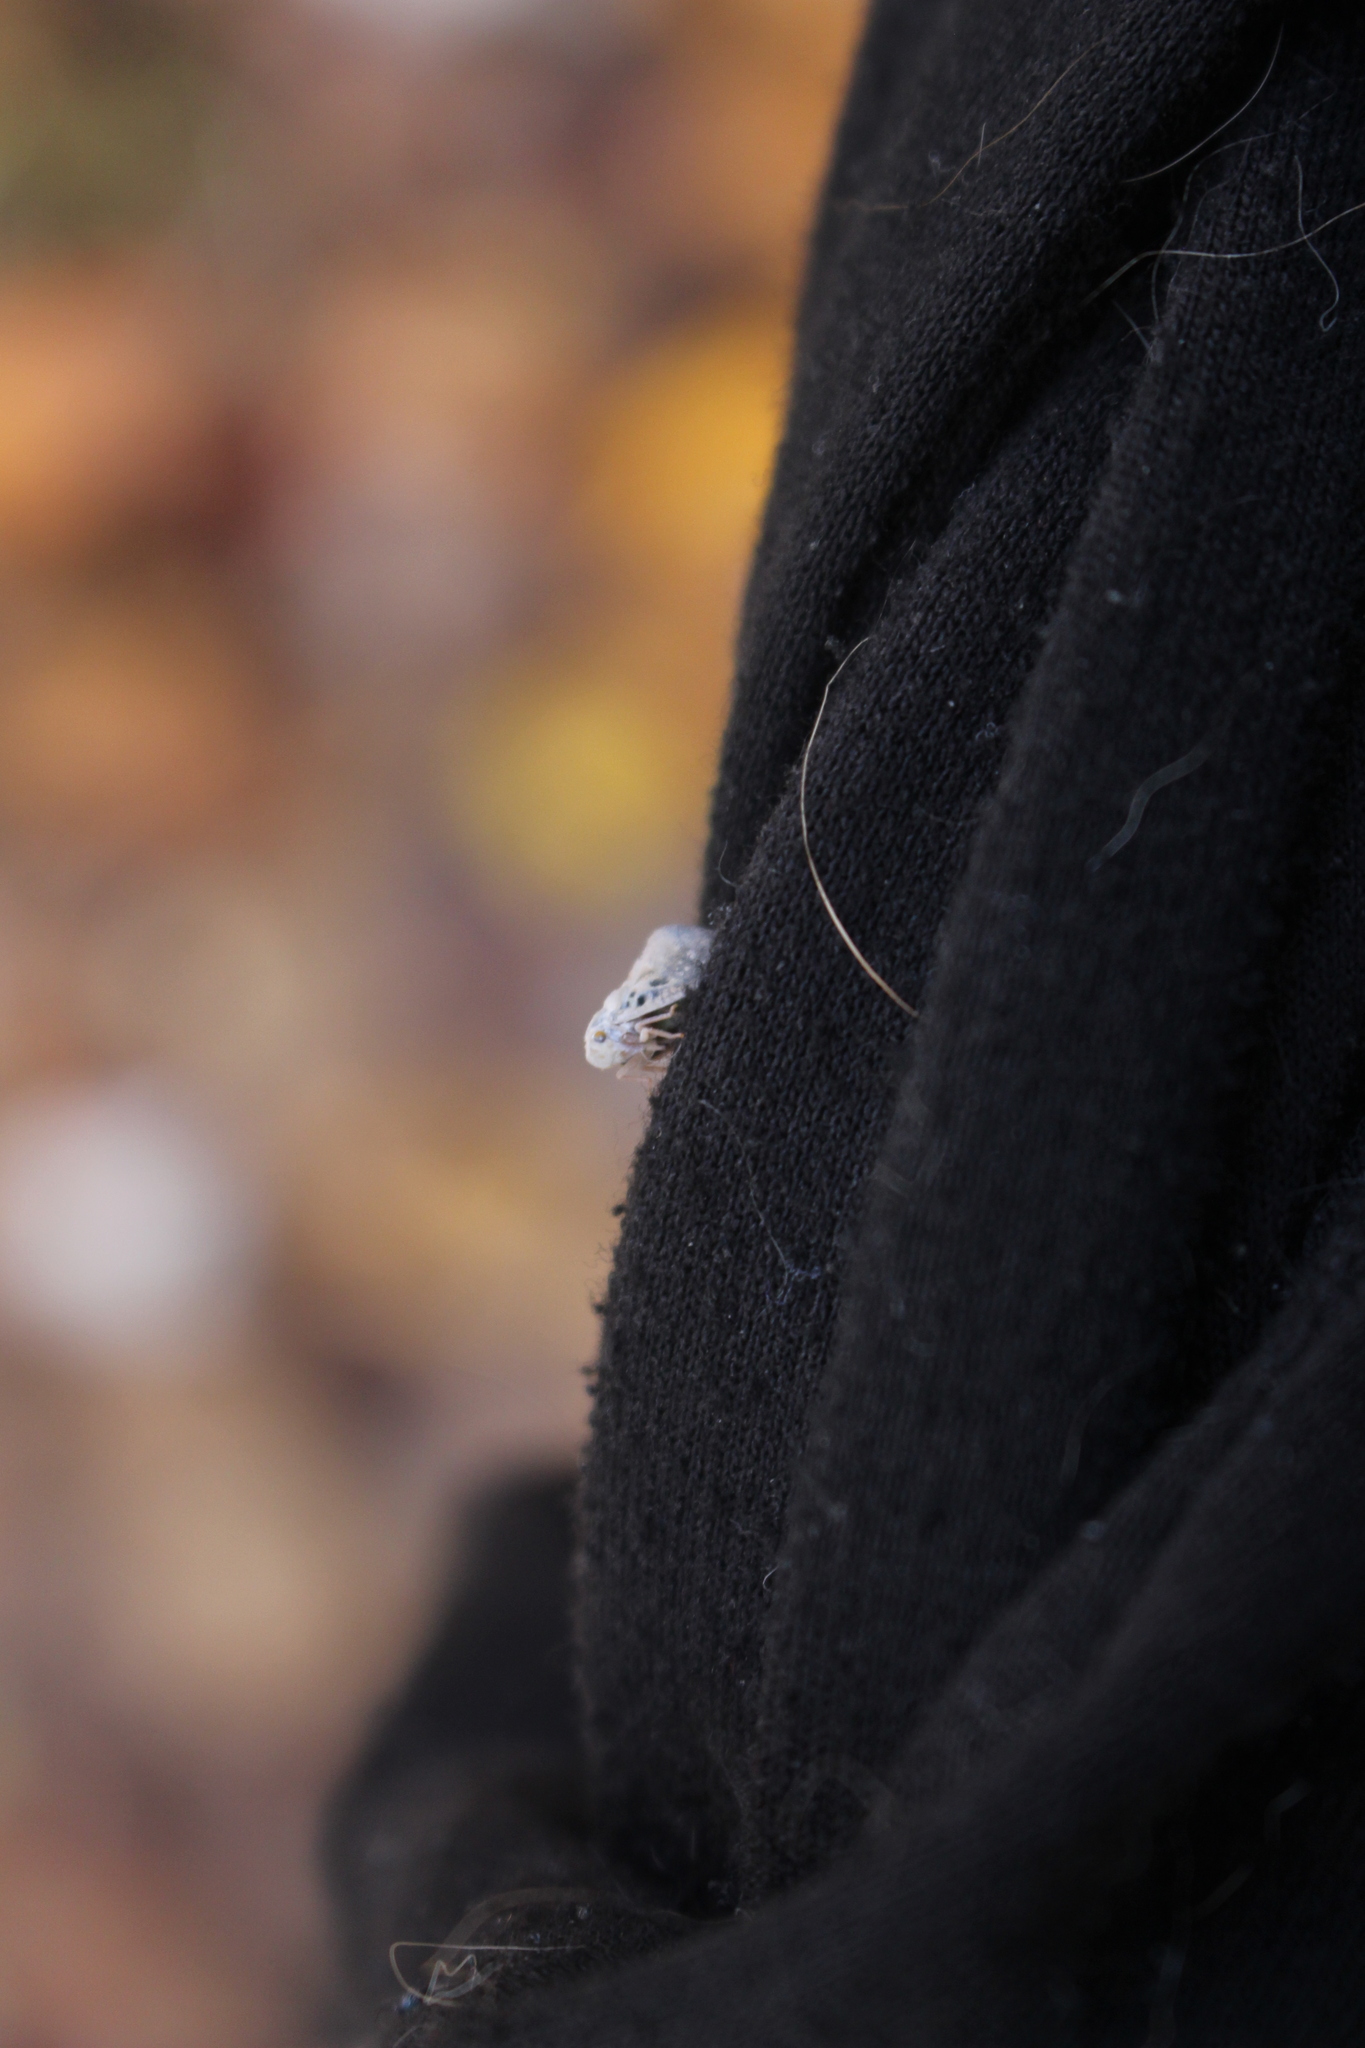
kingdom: Animalia
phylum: Arthropoda
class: Insecta
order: Hemiptera
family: Flatidae
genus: Metcalfa
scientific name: Metcalfa pruinosa
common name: Citrus flatid planthopper
